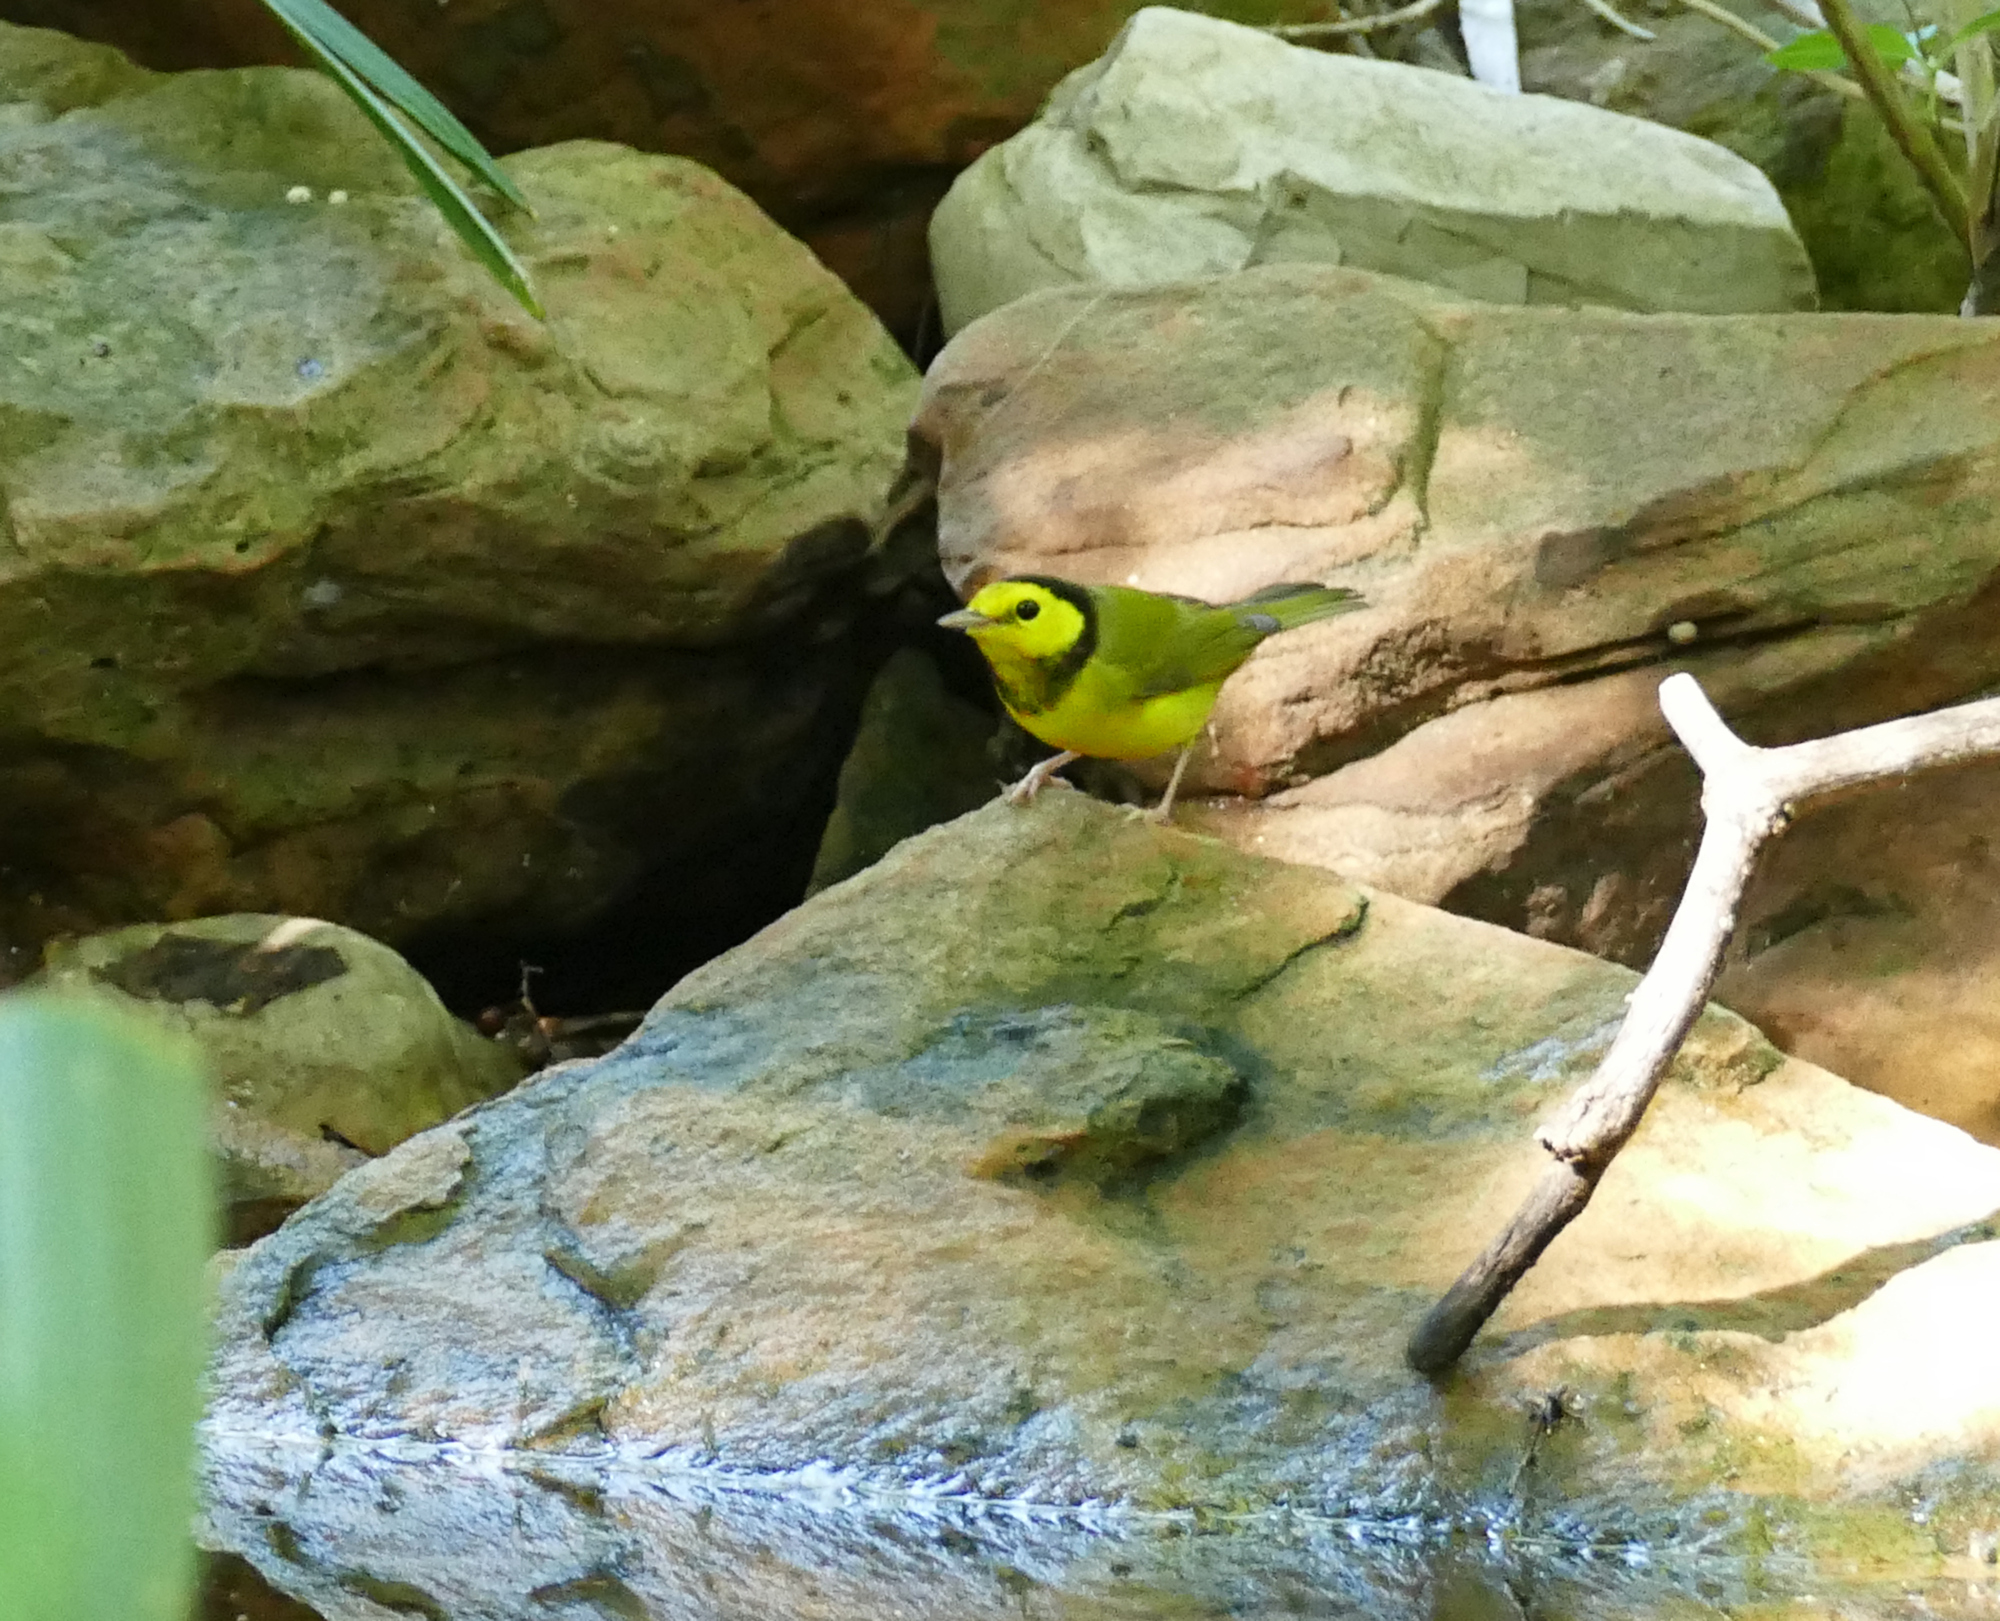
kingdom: Animalia
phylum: Chordata
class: Aves
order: Passeriformes
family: Parulidae
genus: Setophaga
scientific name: Setophaga citrina
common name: Hooded warbler
